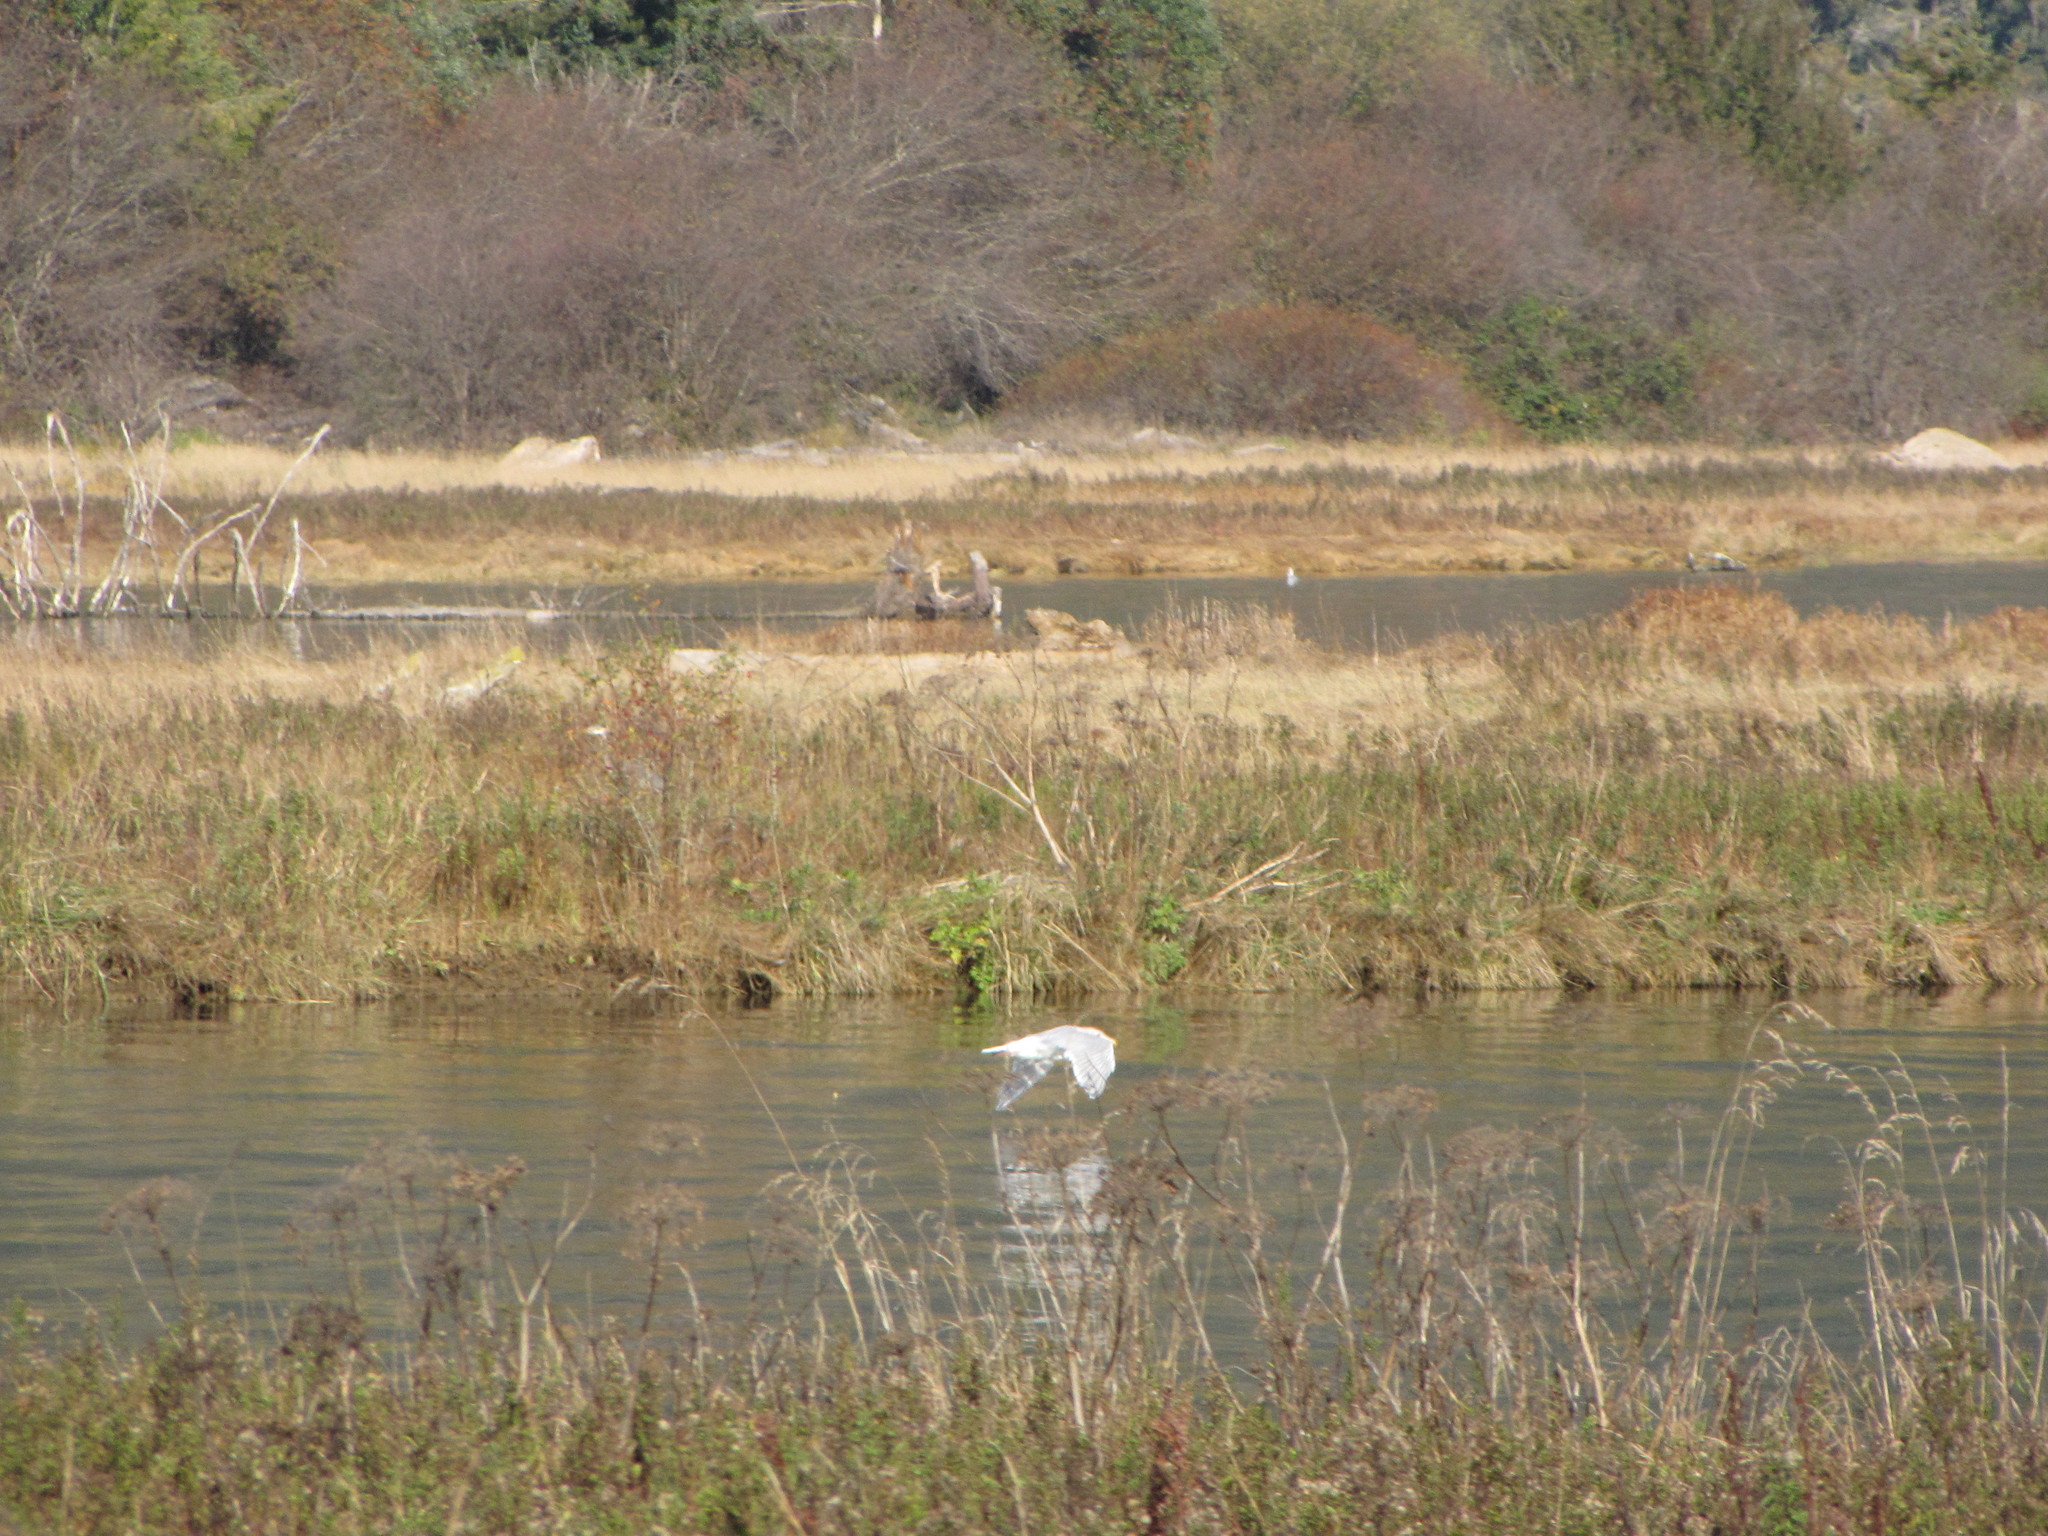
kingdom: Animalia
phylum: Chordata
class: Aves
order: Charadriiformes
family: Laridae
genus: Larus
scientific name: Larus glaucescens
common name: Glaucous-winged gull
